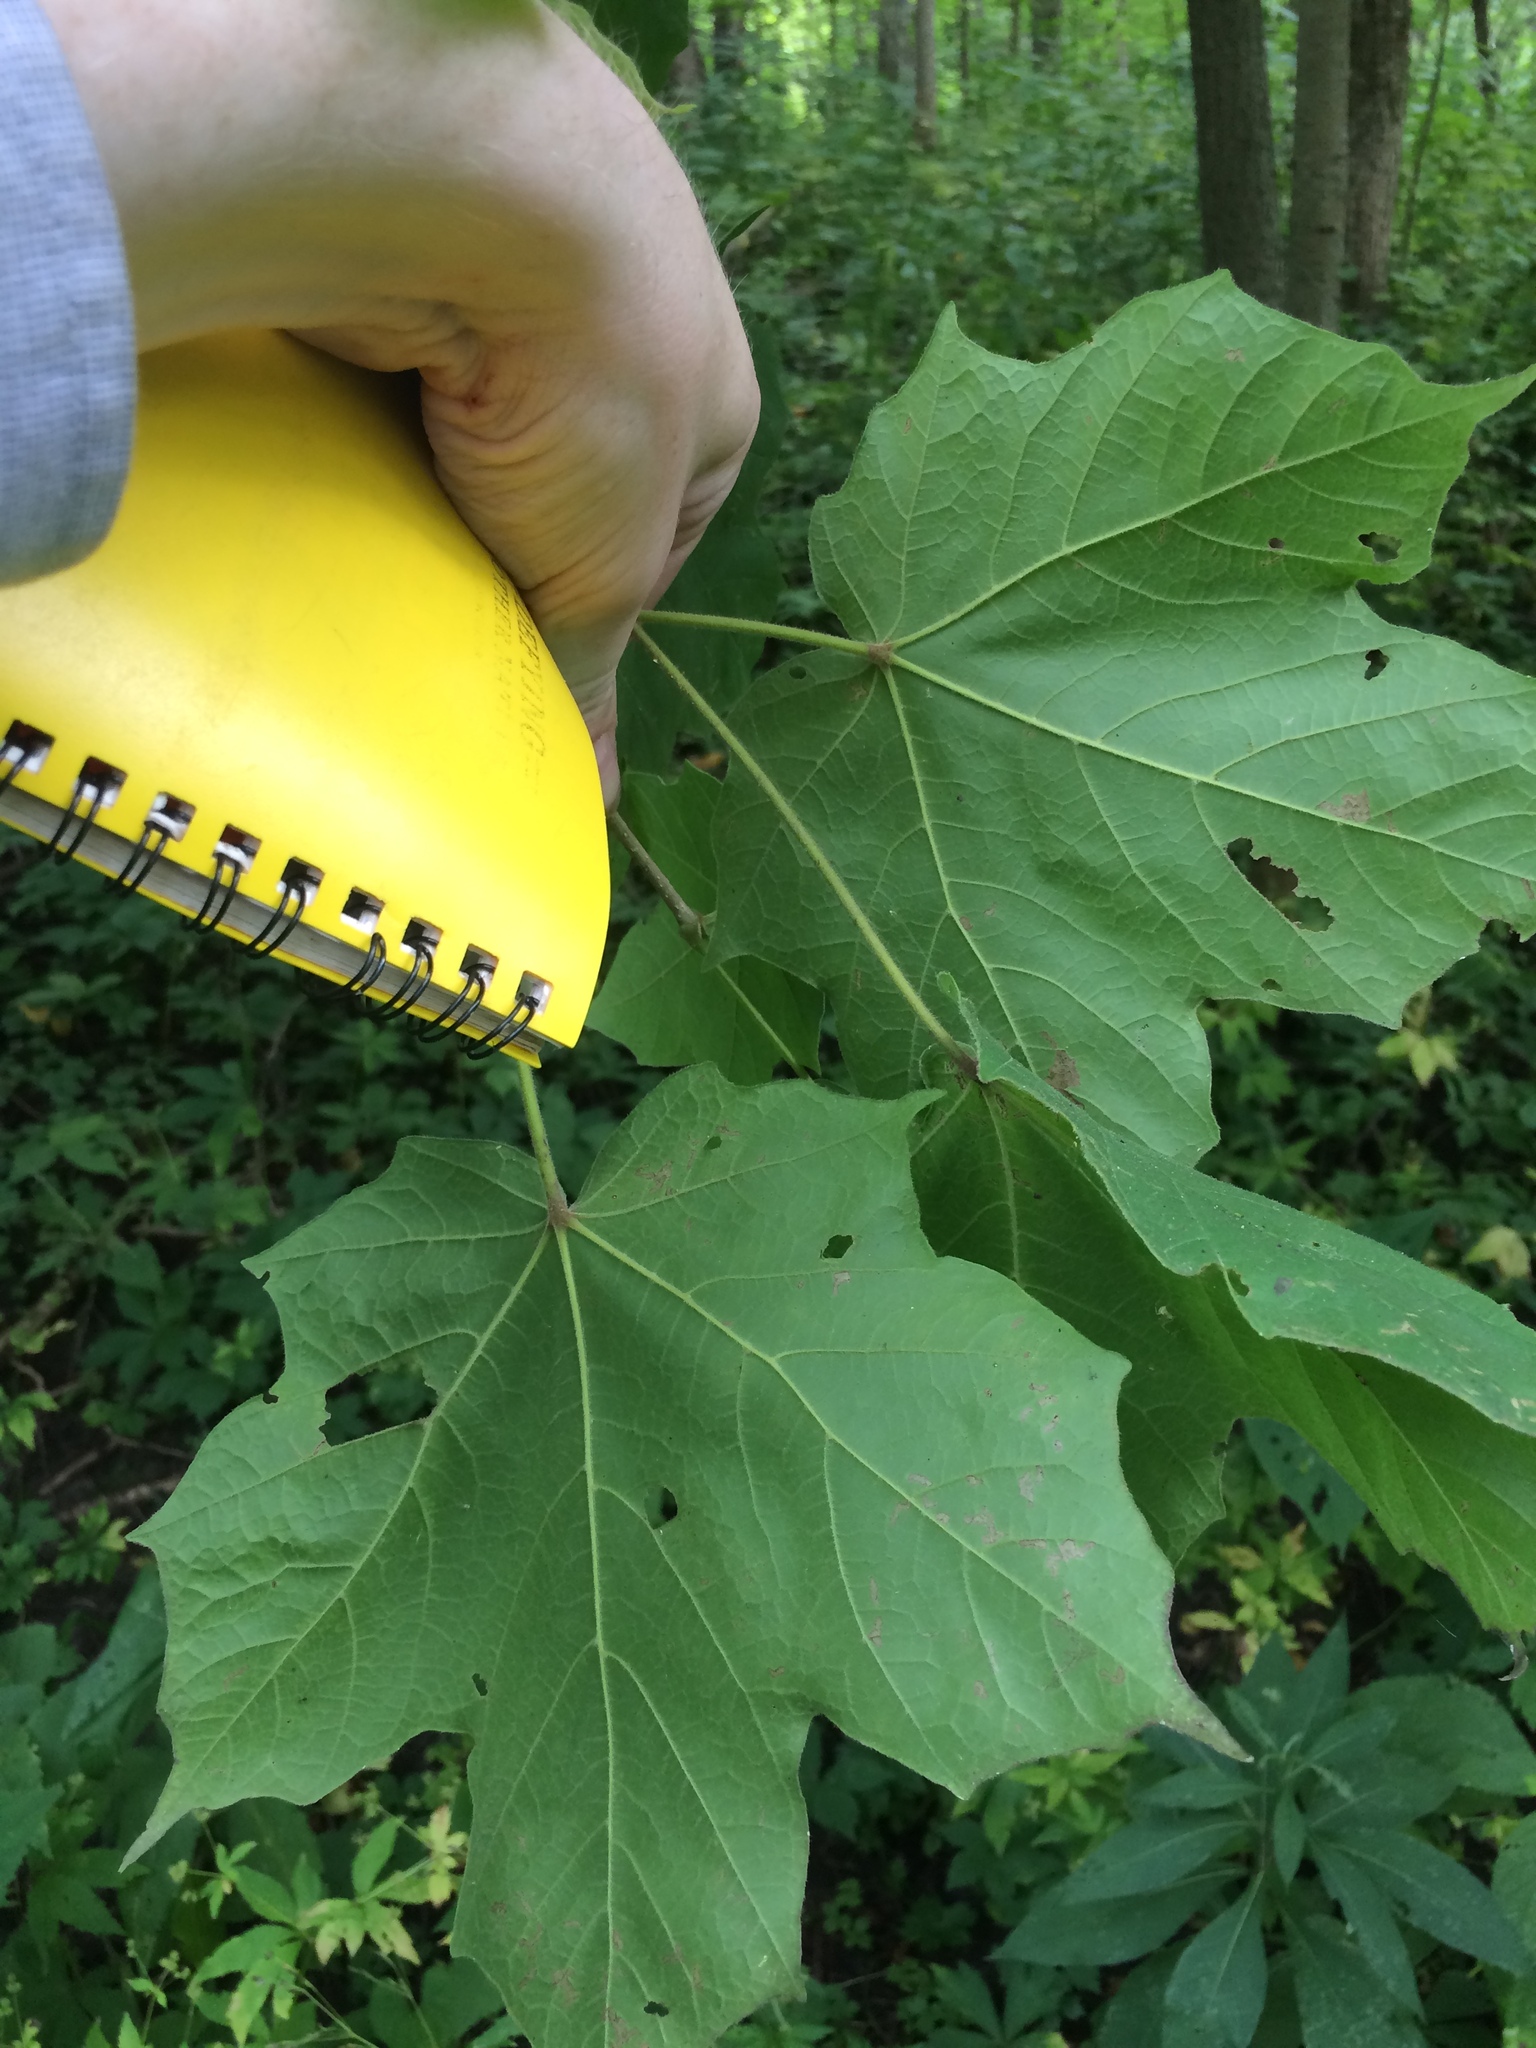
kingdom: Plantae
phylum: Tracheophyta
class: Magnoliopsida
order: Sapindales
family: Sapindaceae
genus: Acer
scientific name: Acer nigrum
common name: Black maple
